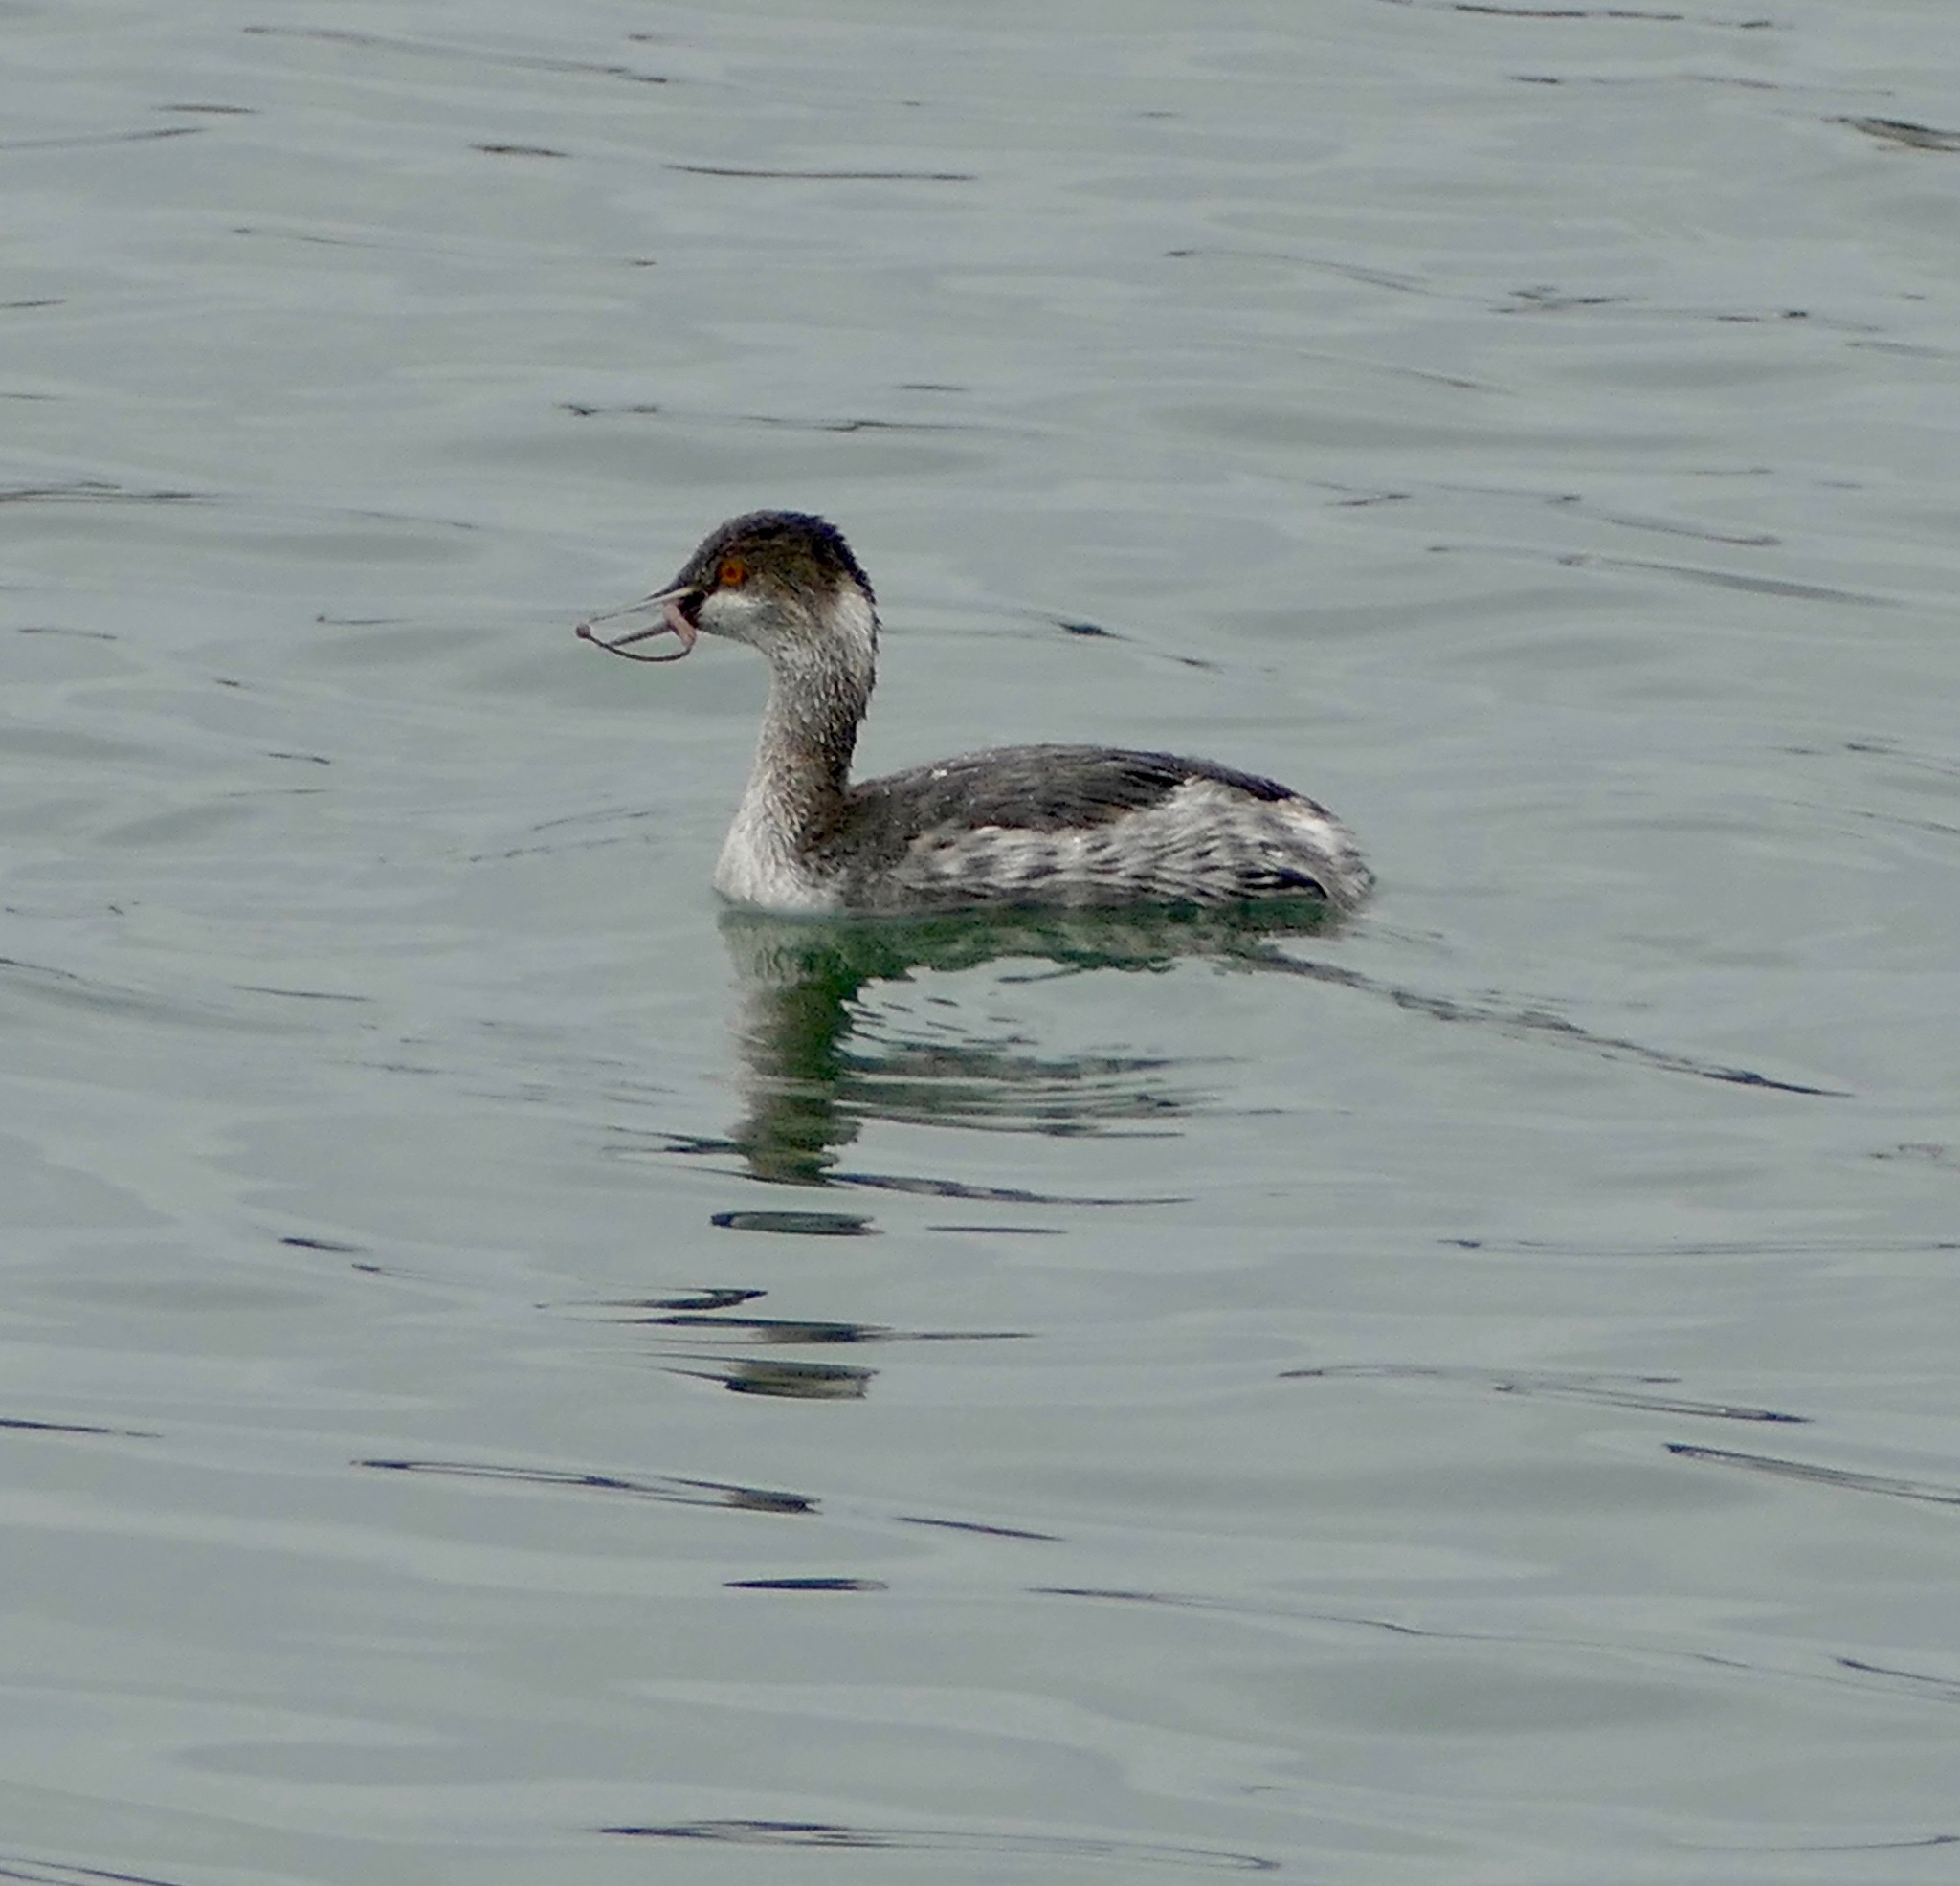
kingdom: Animalia
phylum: Chordata
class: Aves
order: Podicipediformes
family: Podicipedidae
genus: Podiceps
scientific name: Podiceps nigricollis
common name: Black-necked grebe
